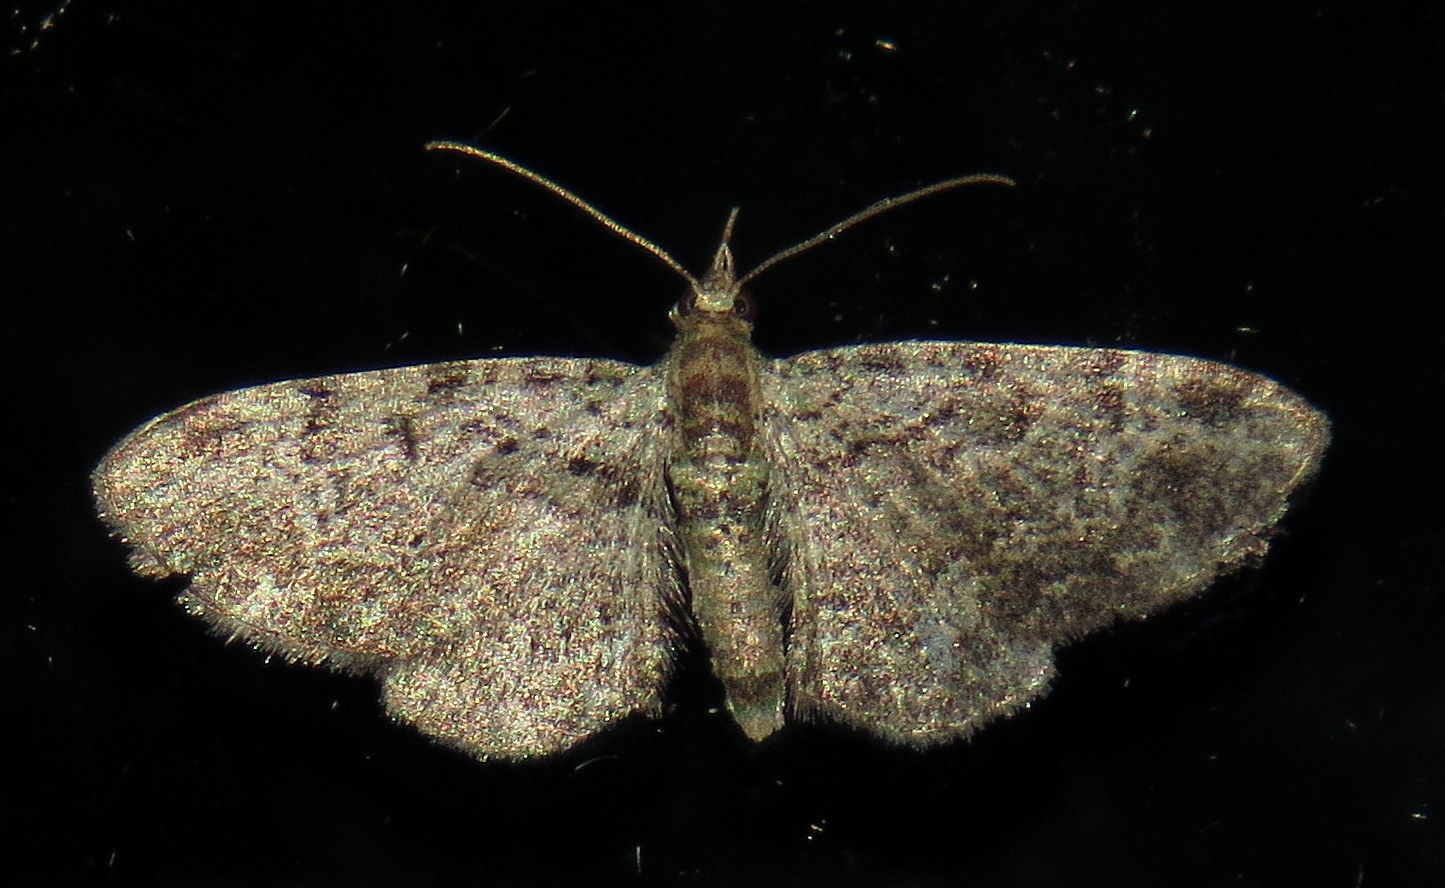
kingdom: Animalia
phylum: Arthropoda
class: Insecta
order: Lepidoptera
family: Geometridae
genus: Pasiphila
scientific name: Pasiphila rectangulata
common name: Green pug
